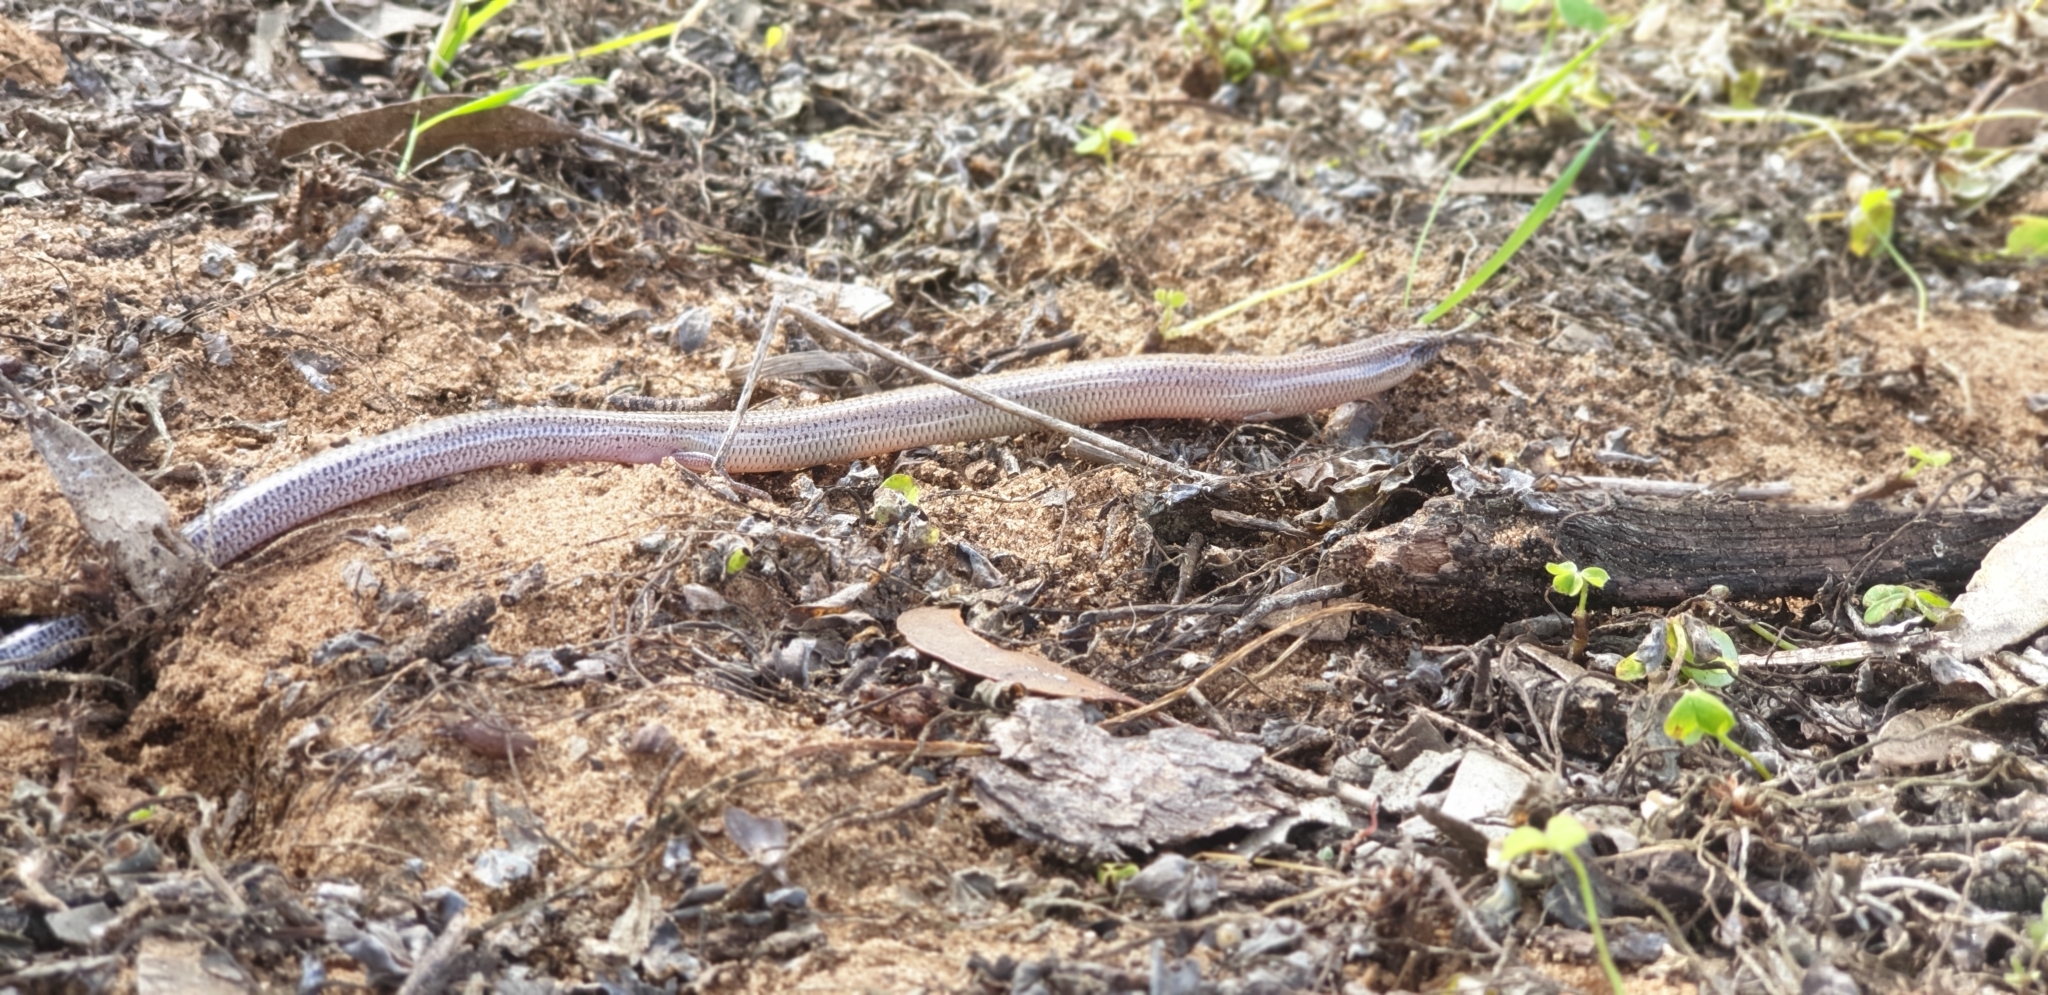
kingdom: Animalia
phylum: Chordata
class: Squamata
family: Scincidae
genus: Lerista
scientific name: Lerista punctatovittata
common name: Eastern robust slider
